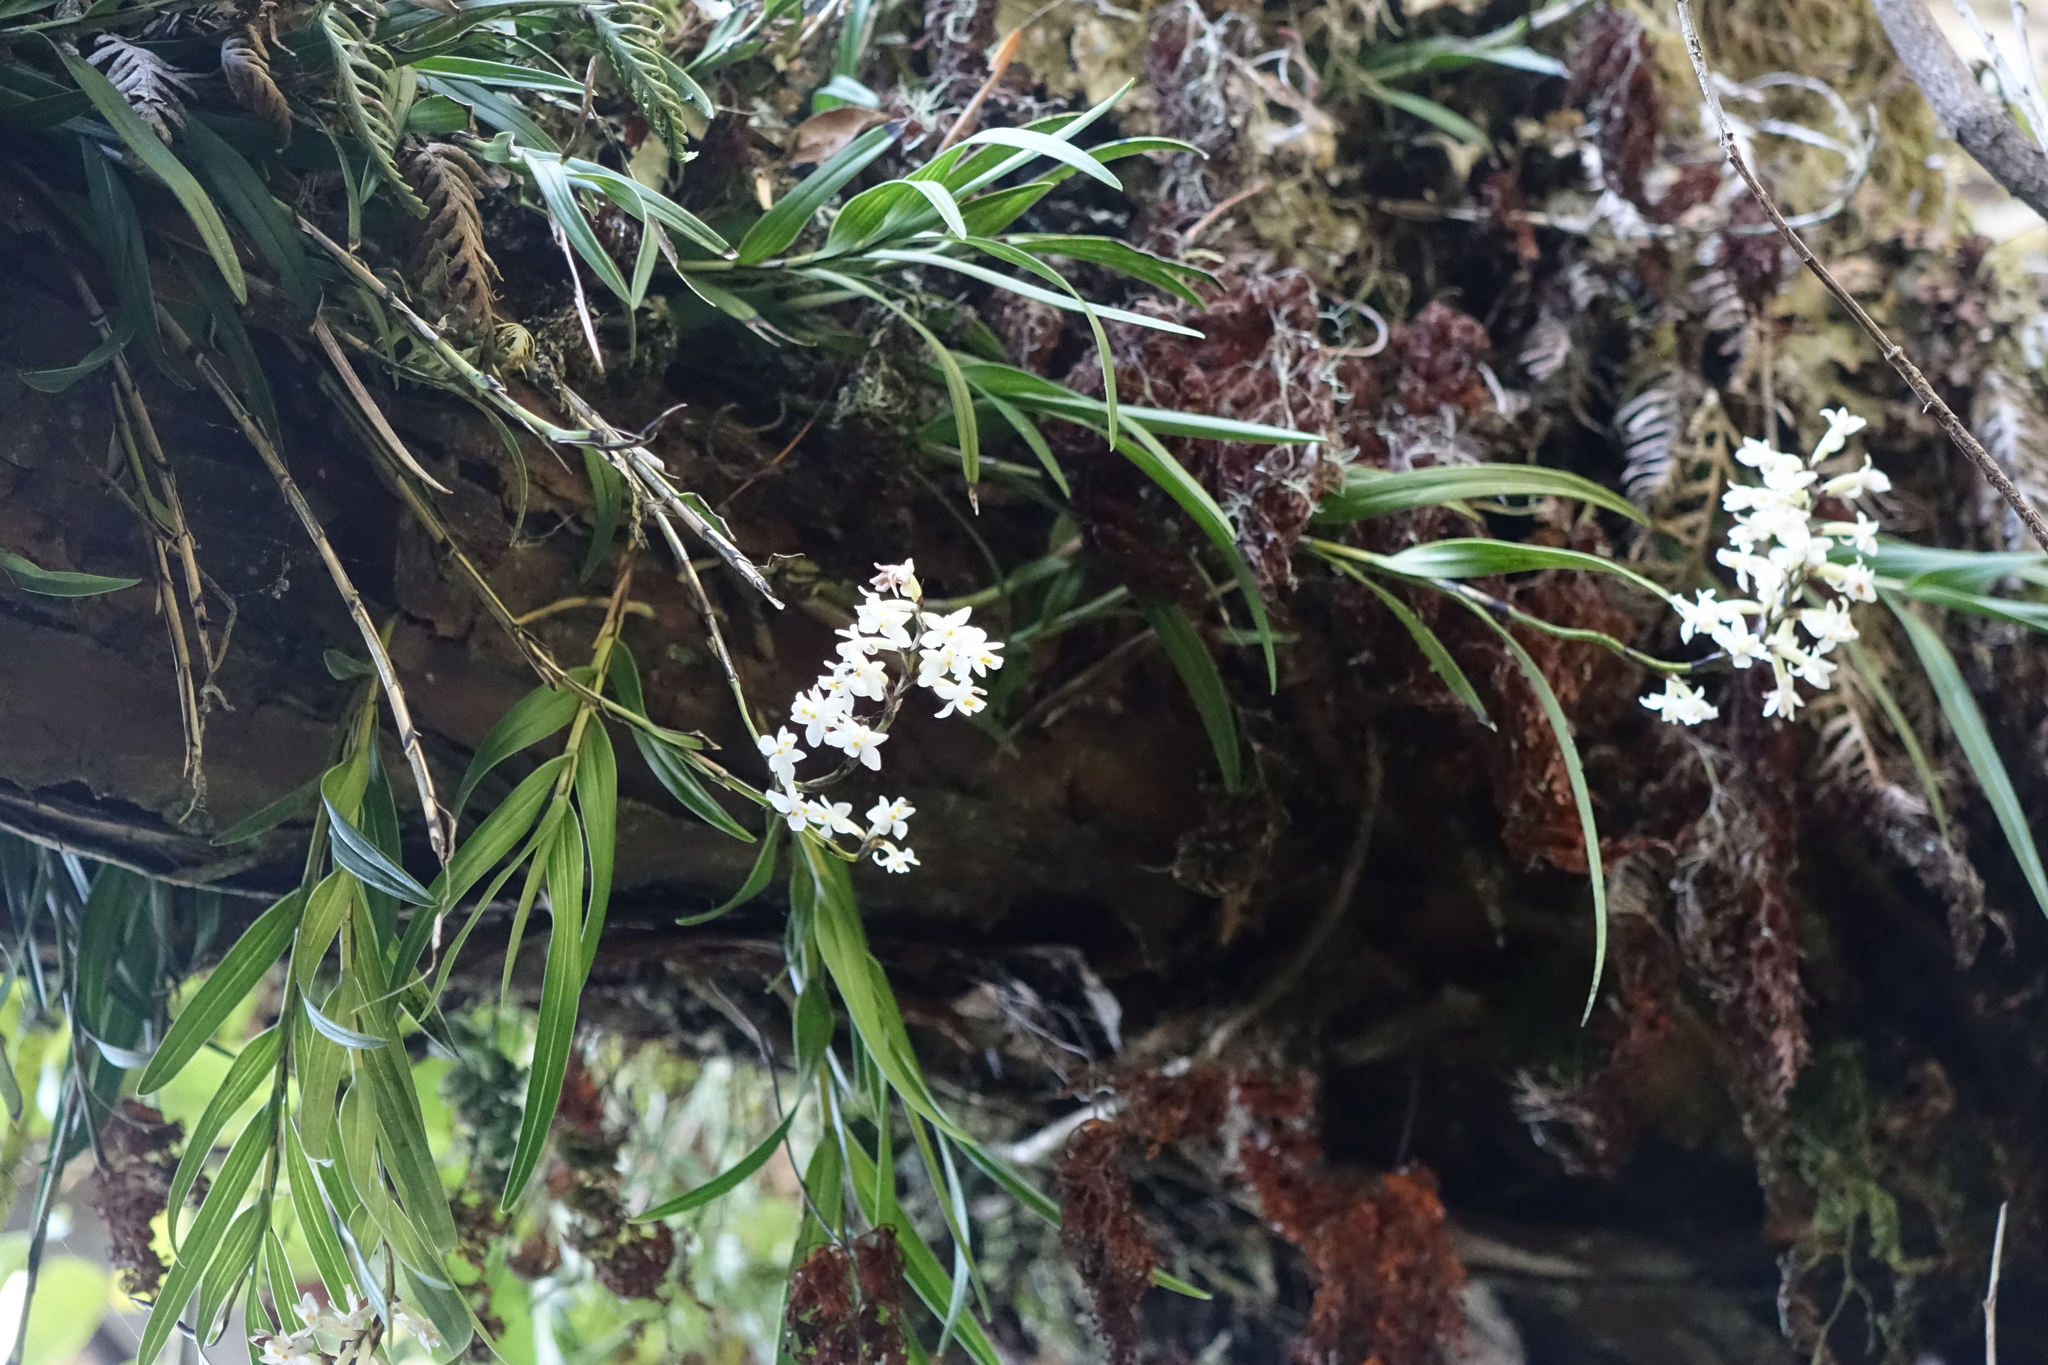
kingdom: Plantae
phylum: Tracheophyta
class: Liliopsida
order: Asparagales
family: Orchidaceae
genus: Earina
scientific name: Earina autumnalis
